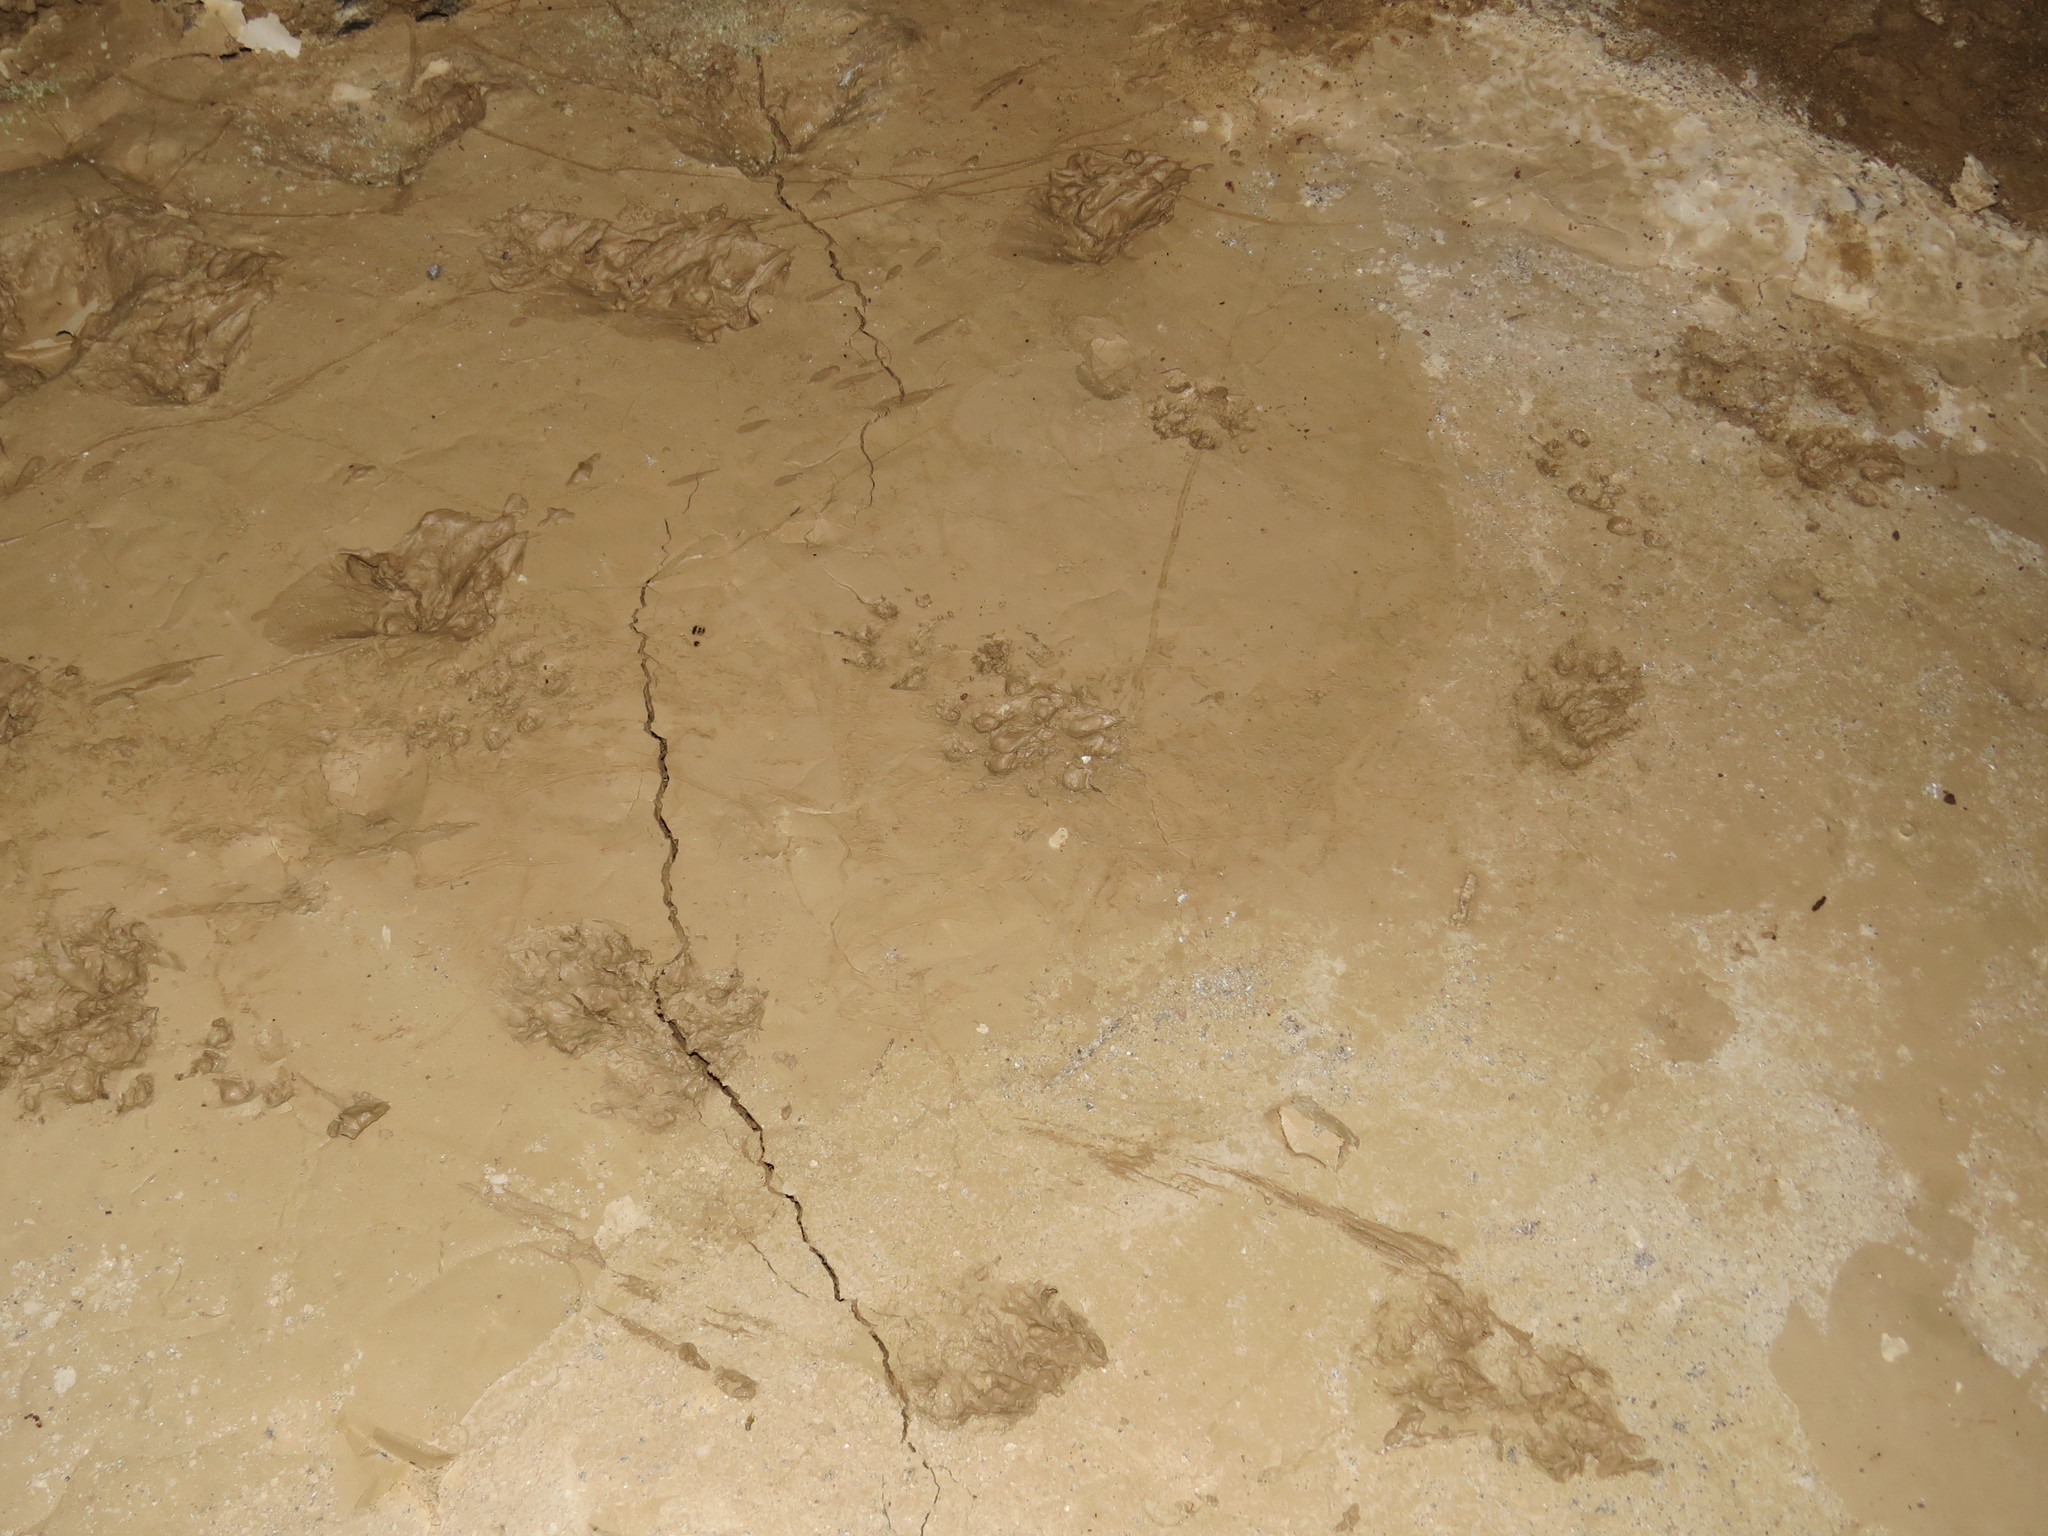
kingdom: Animalia
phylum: Chordata
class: Mammalia
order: Carnivora
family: Mustelidae
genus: Lutra
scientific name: Lutra lutra
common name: European otter
